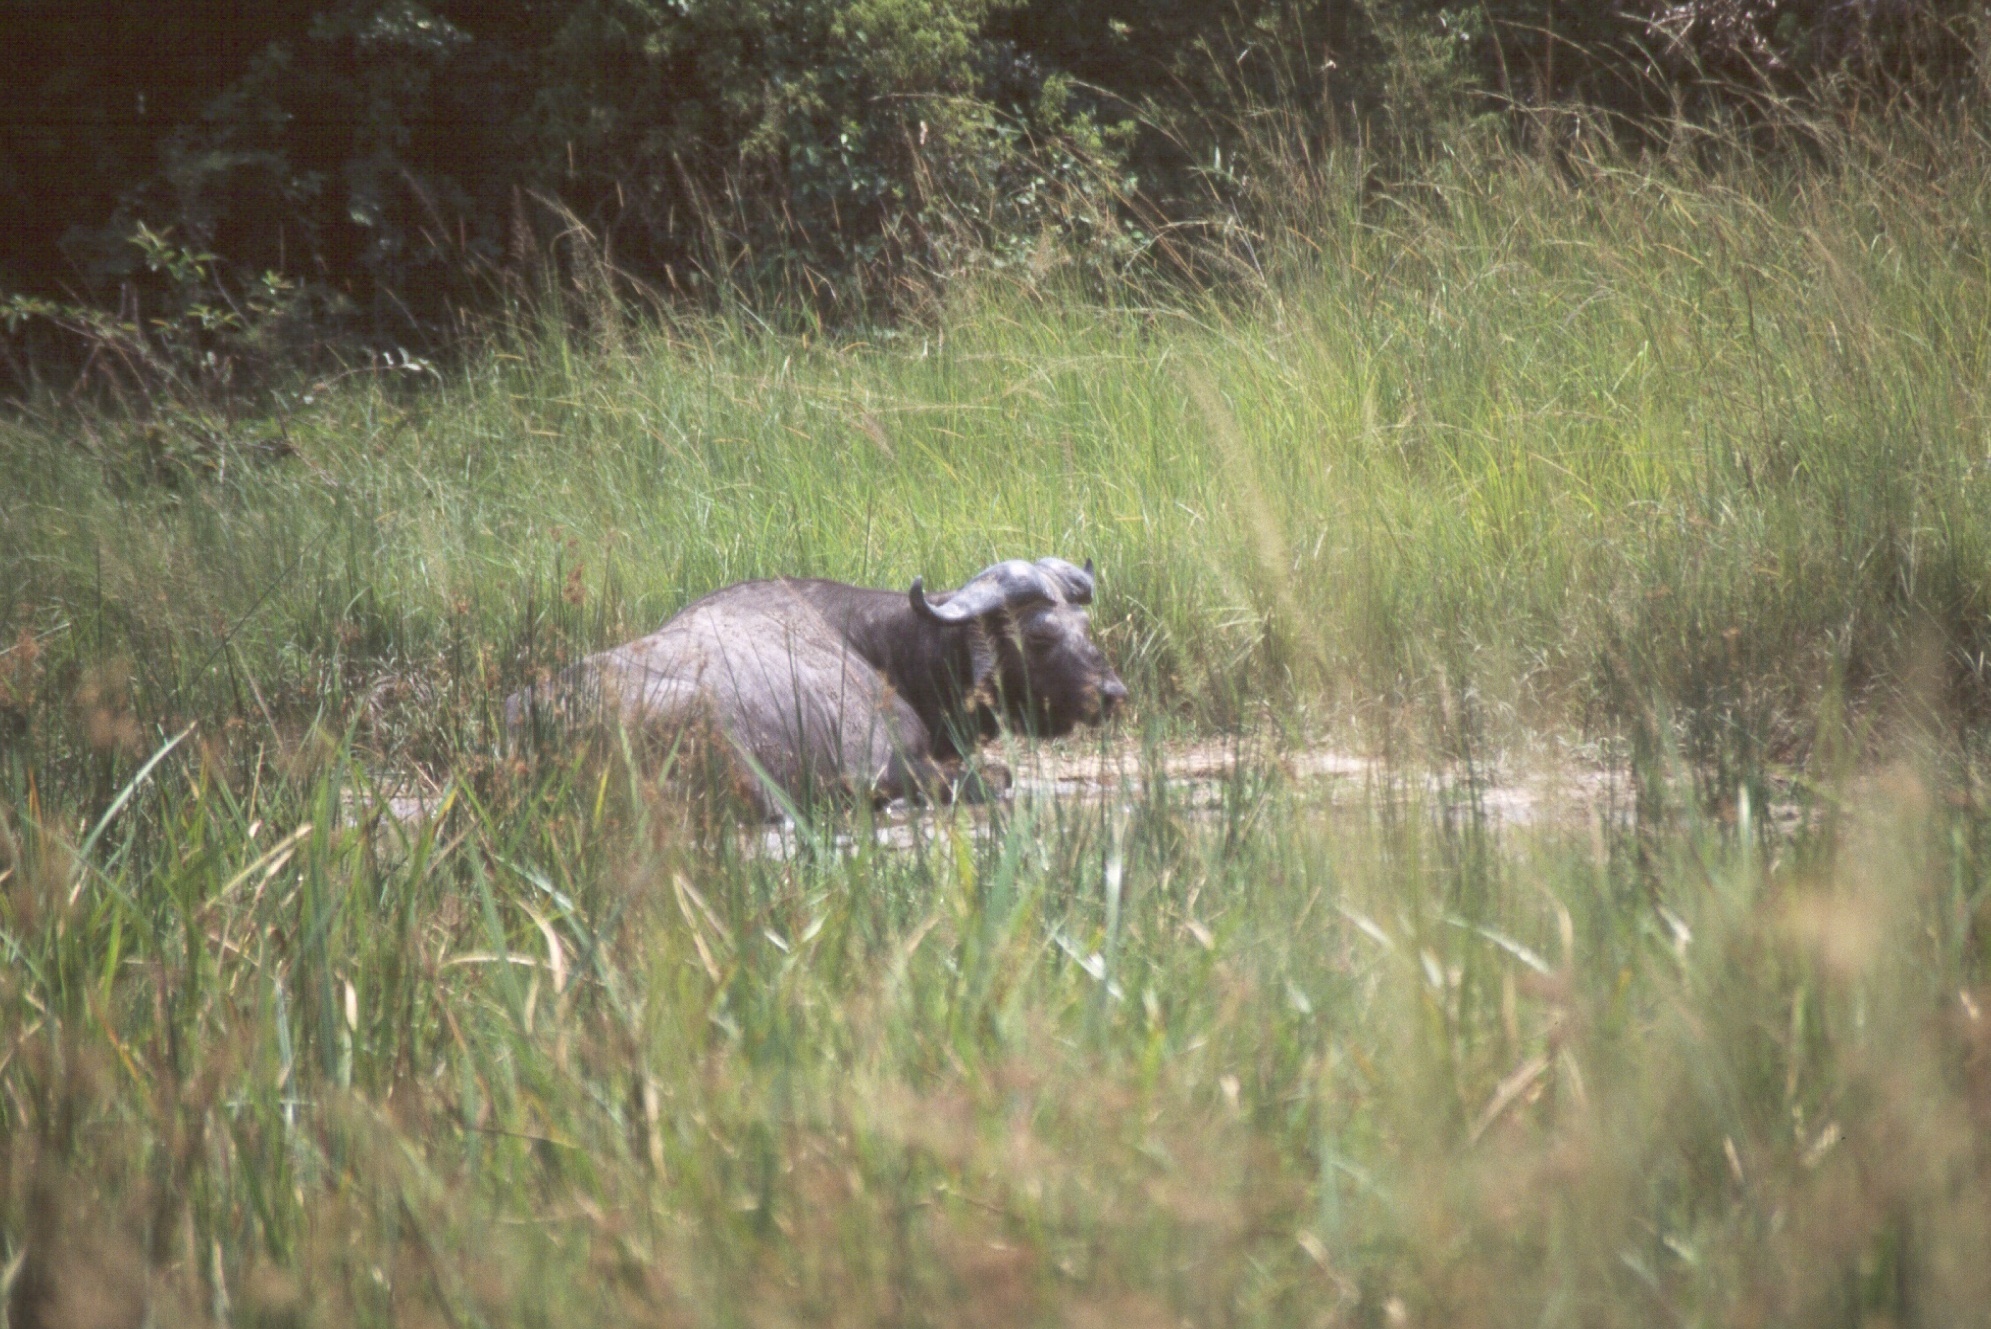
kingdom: Animalia
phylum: Chordata
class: Mammalia
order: Artiodactyla
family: Bovidae
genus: Syncerus
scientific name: Syncerus caffer
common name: African buffalo
